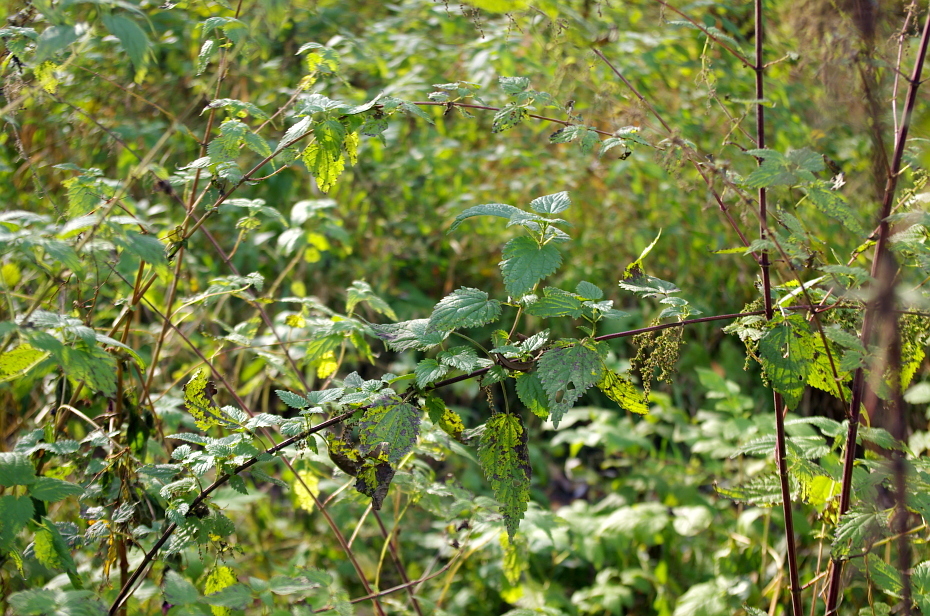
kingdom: Plantae
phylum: Tracheophyta
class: Magnoliopsida
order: Rosales
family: Urticaceae
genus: Urtica
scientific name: Urtica dioica
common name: Common nettle
